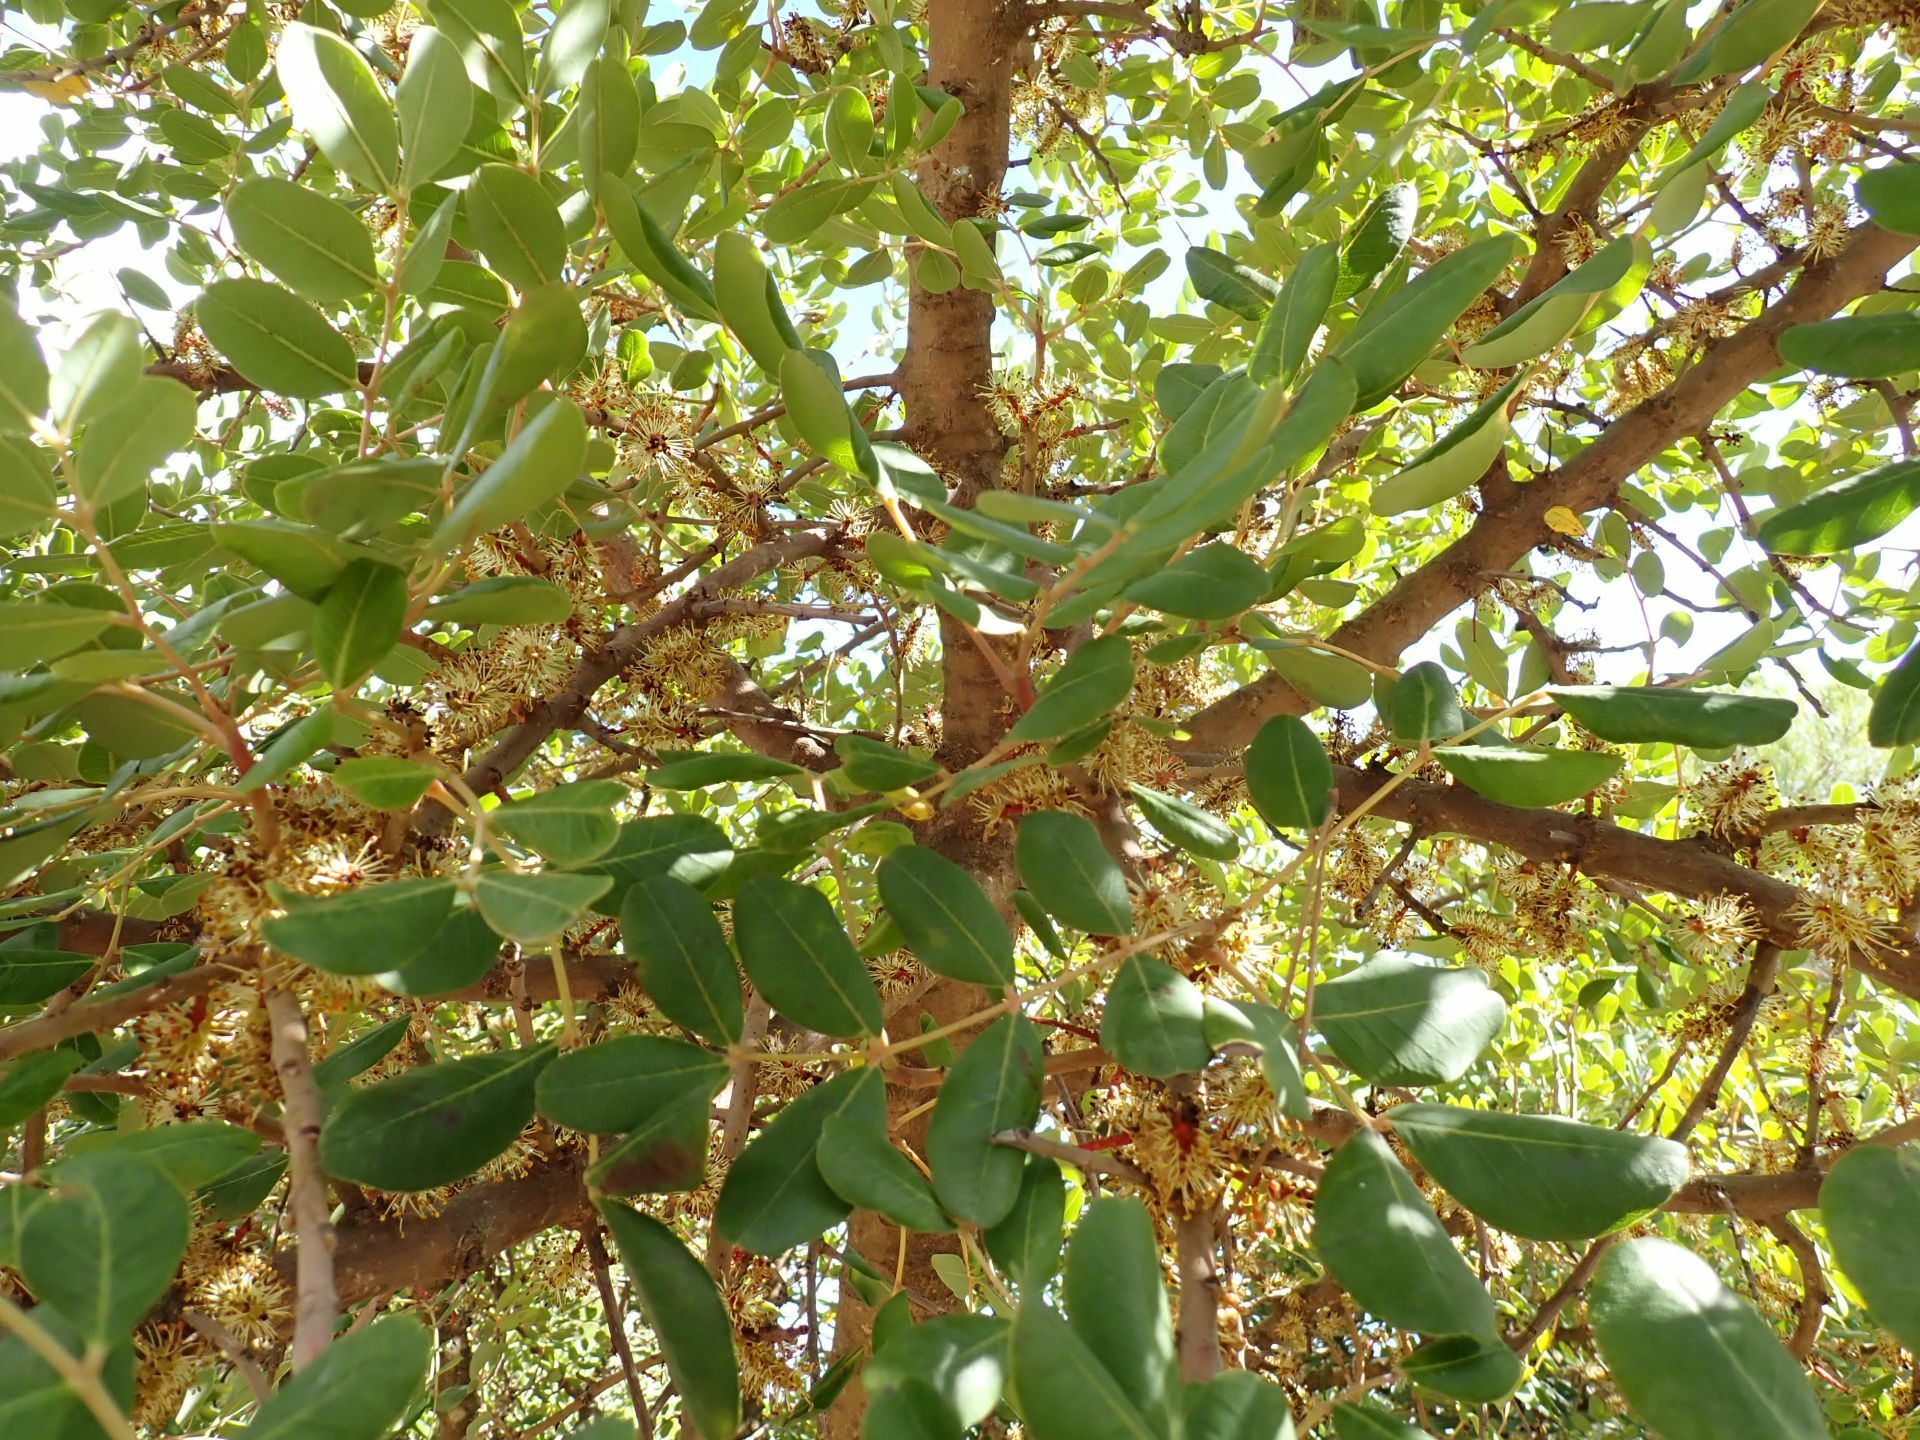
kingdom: Plantae
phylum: Tracheophyta
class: Magnoliopsida
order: Fabales
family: Fabaceae
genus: Ceratonia
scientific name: Ceratonia siliqua
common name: Carob
